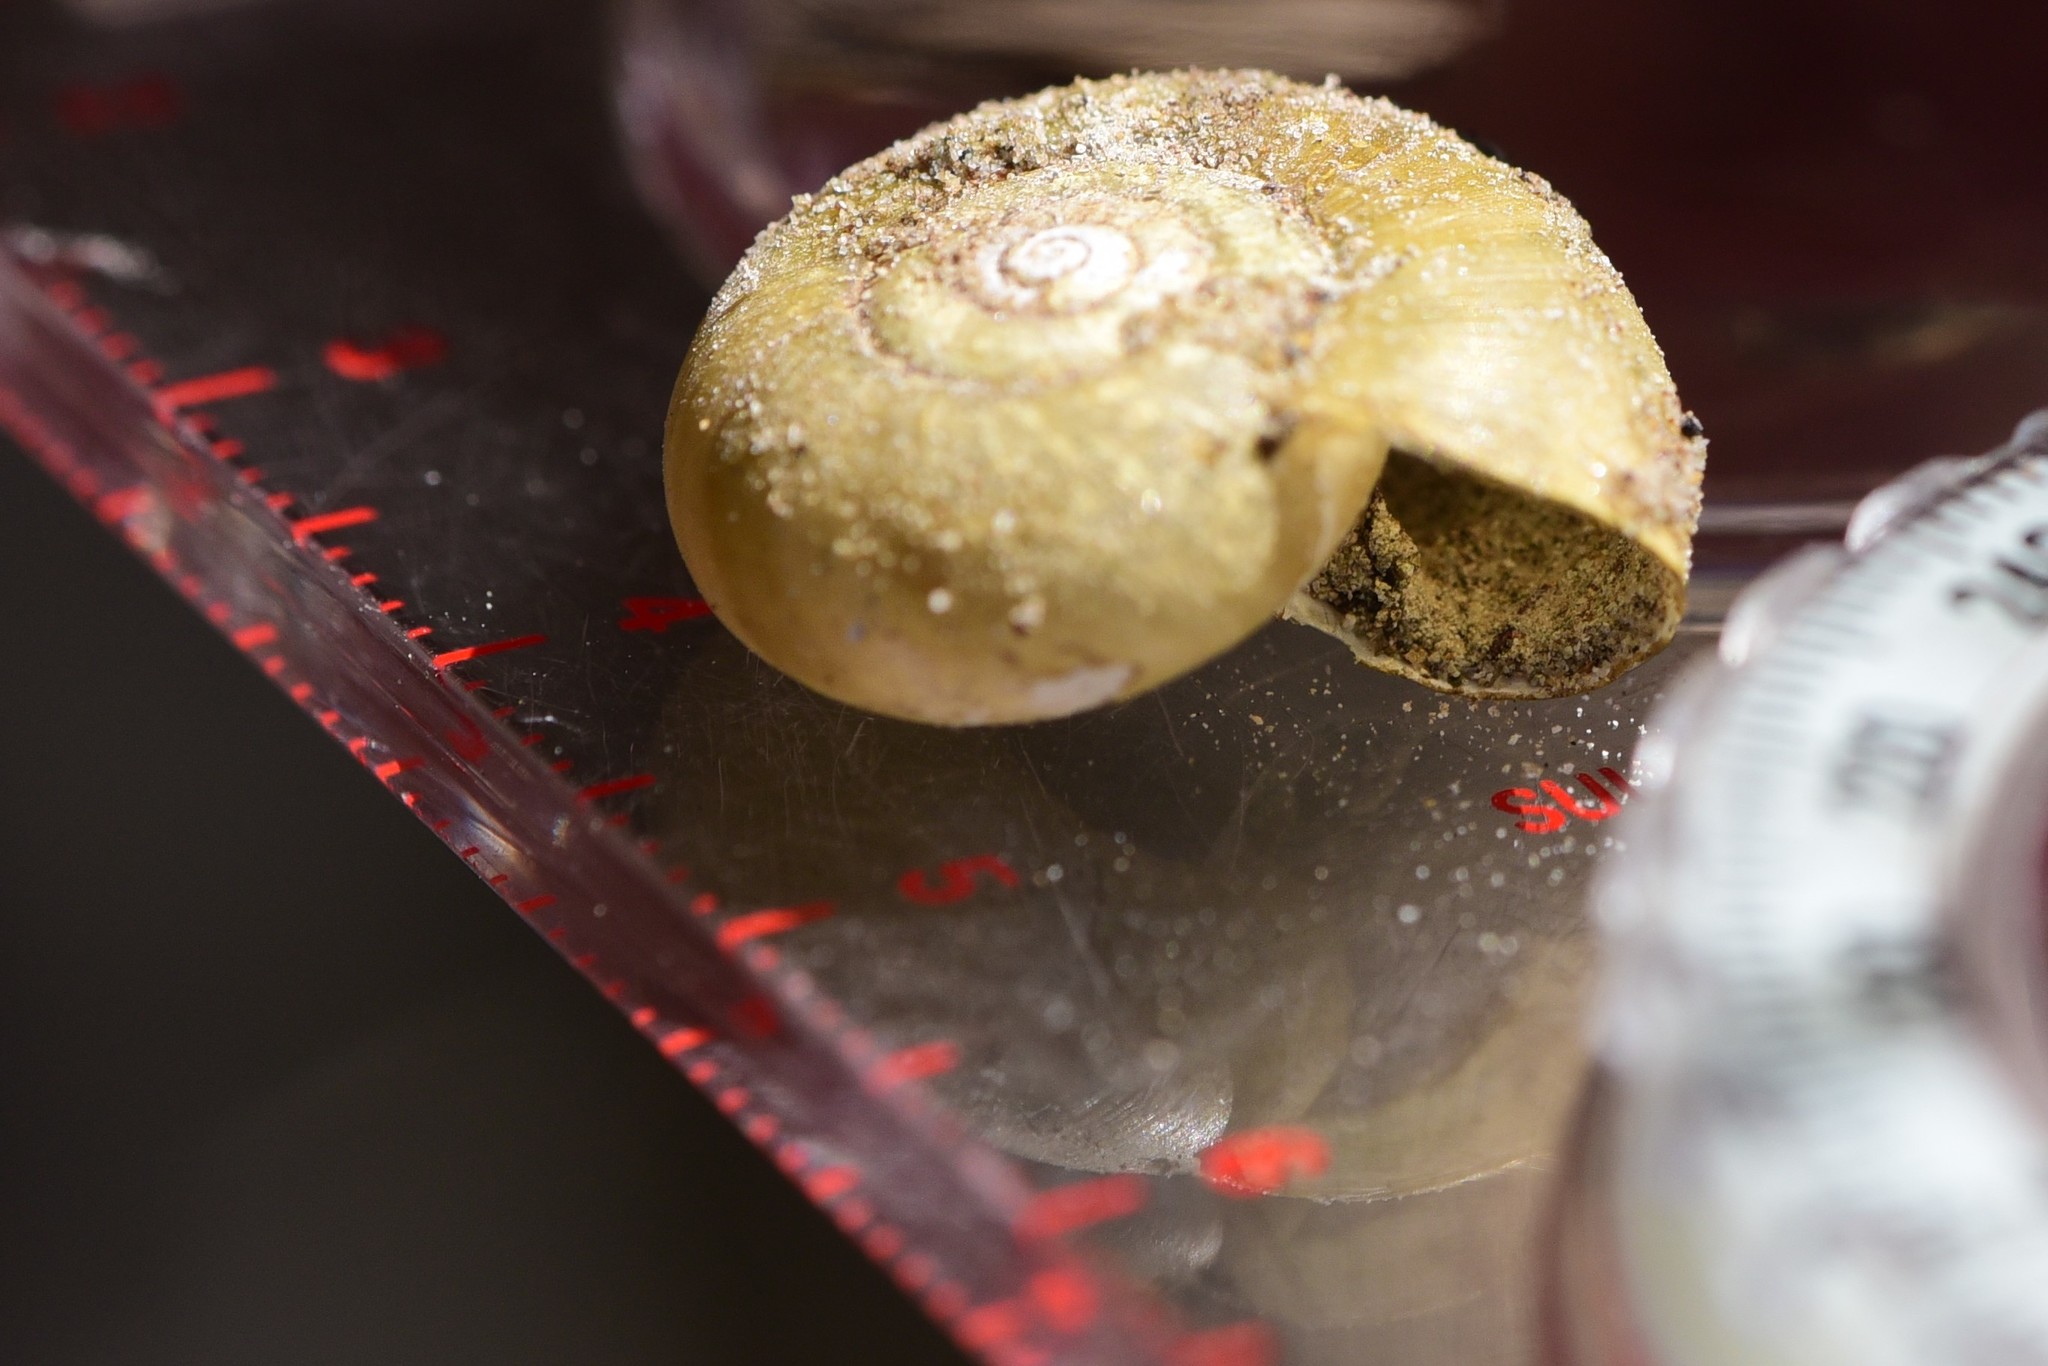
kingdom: Animalia
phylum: Mollusca
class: Gastropoda
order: Stylommatophora
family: Haplotrematidae
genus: Haplotrema
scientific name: Haplotrema vancouverense
